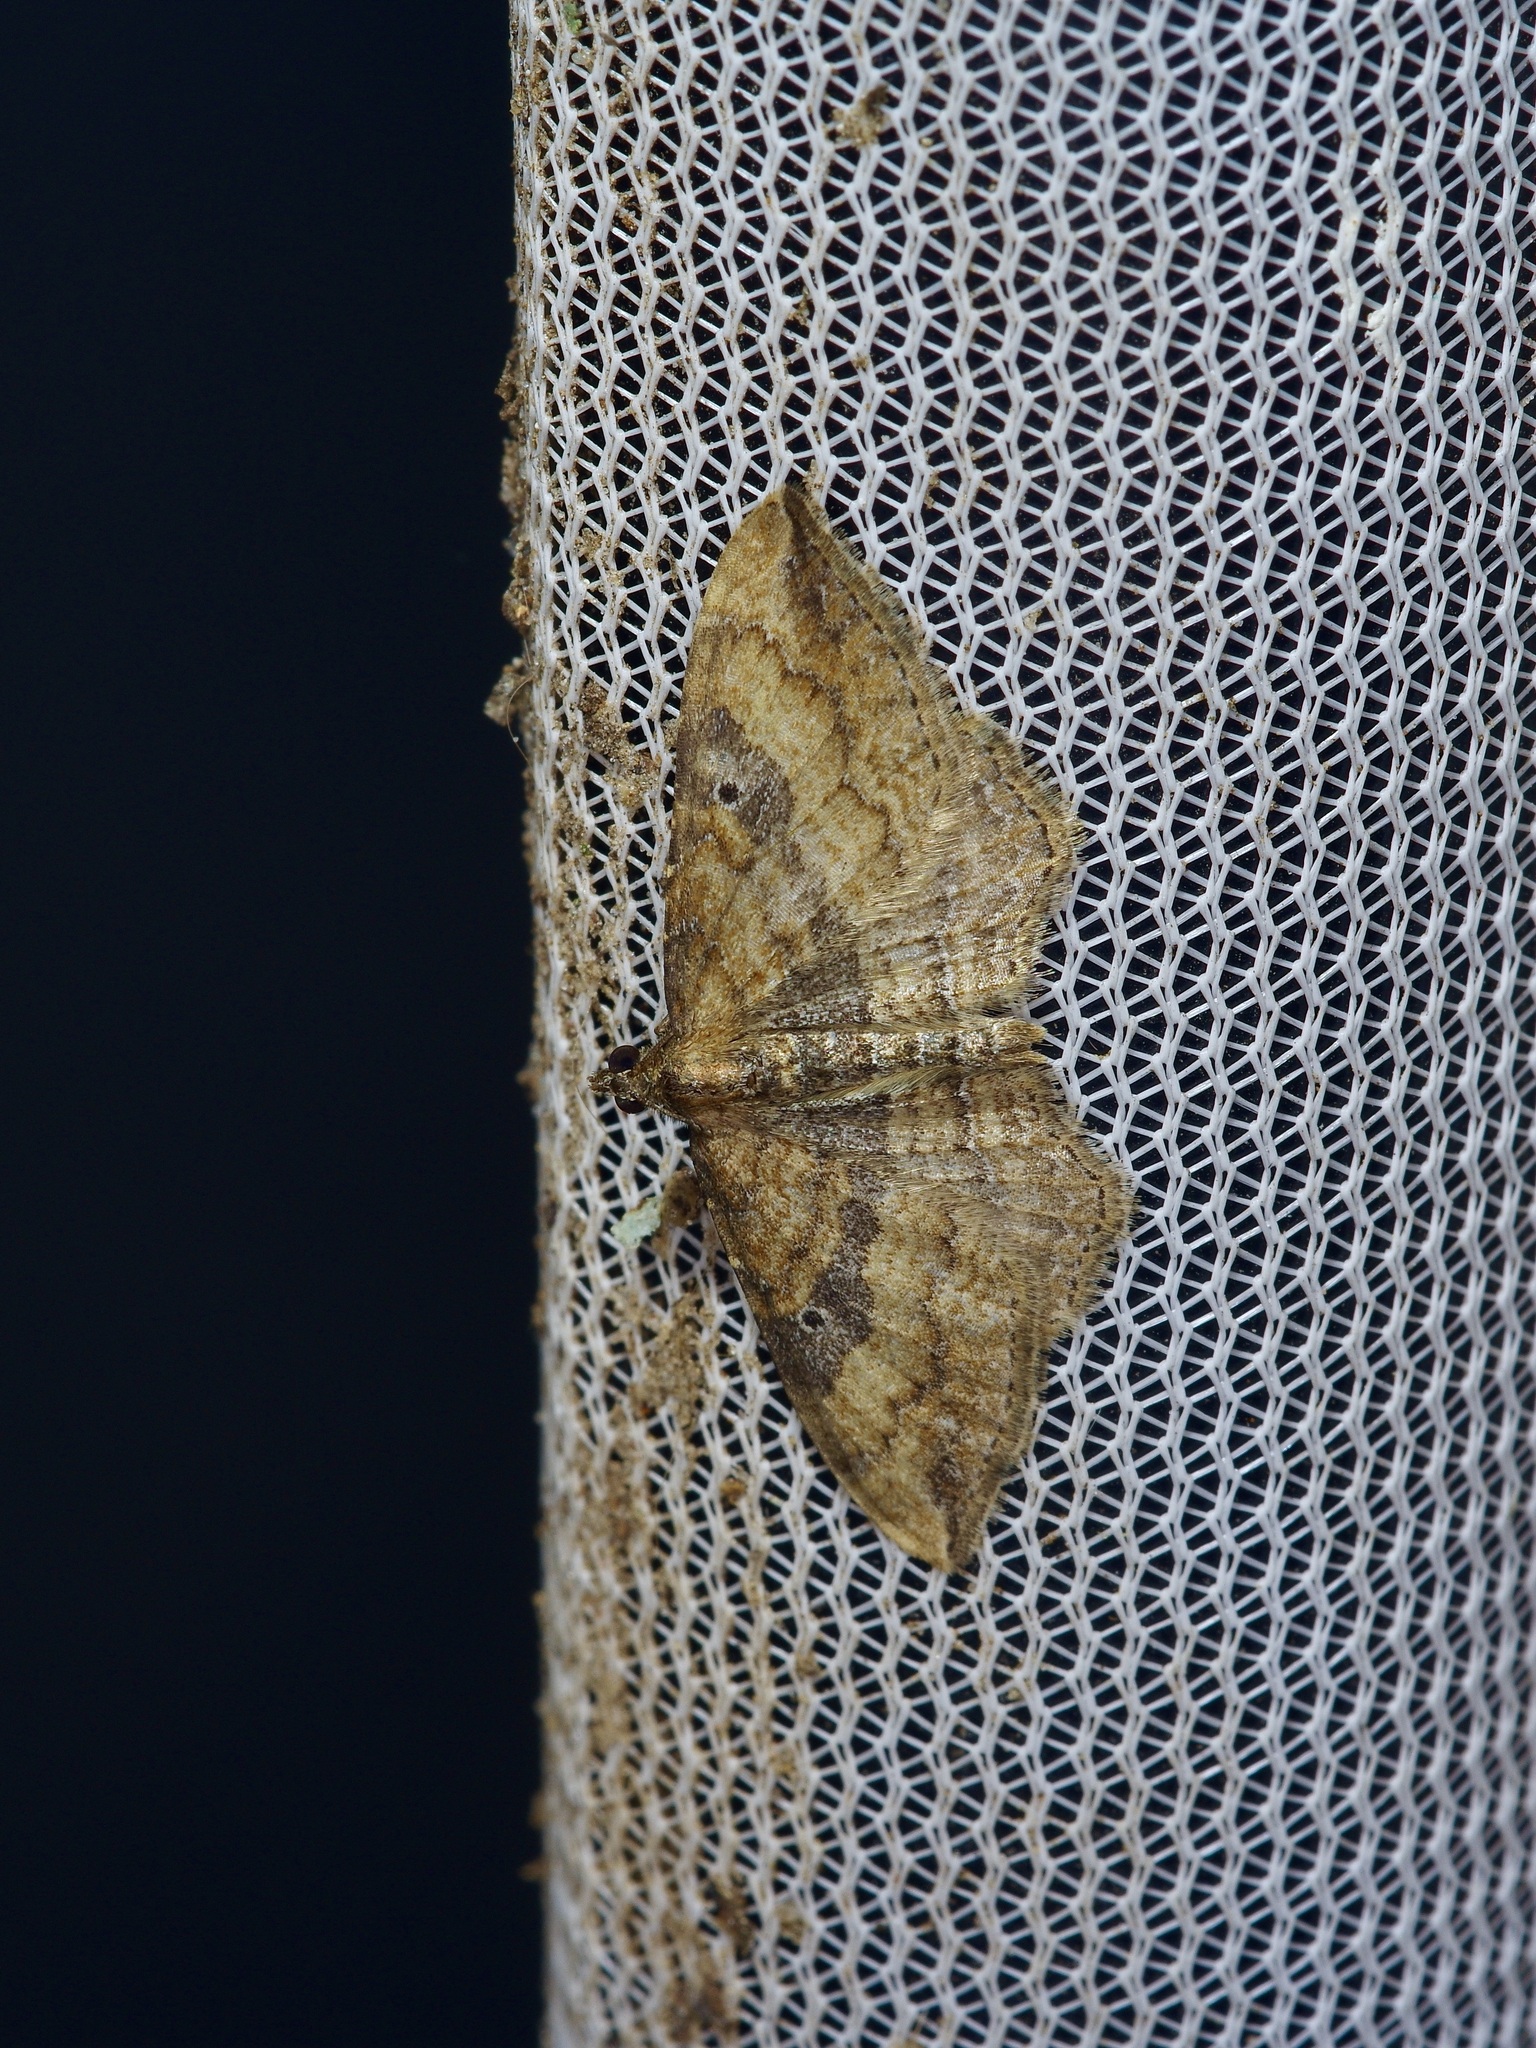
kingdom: Animalia
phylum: Arthropoda
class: Insecta
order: Lepidoptera
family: Geometridae
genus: Orthonama
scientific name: Orthonama obstipata
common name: The gem
